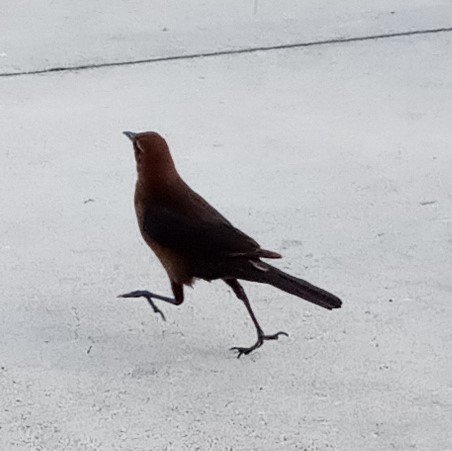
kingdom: Animalia
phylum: Chordata
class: Aves
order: Passeriformes
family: Icteridae
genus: Quiscalus
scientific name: Quiscalus major
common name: Boat-tailed grackle
